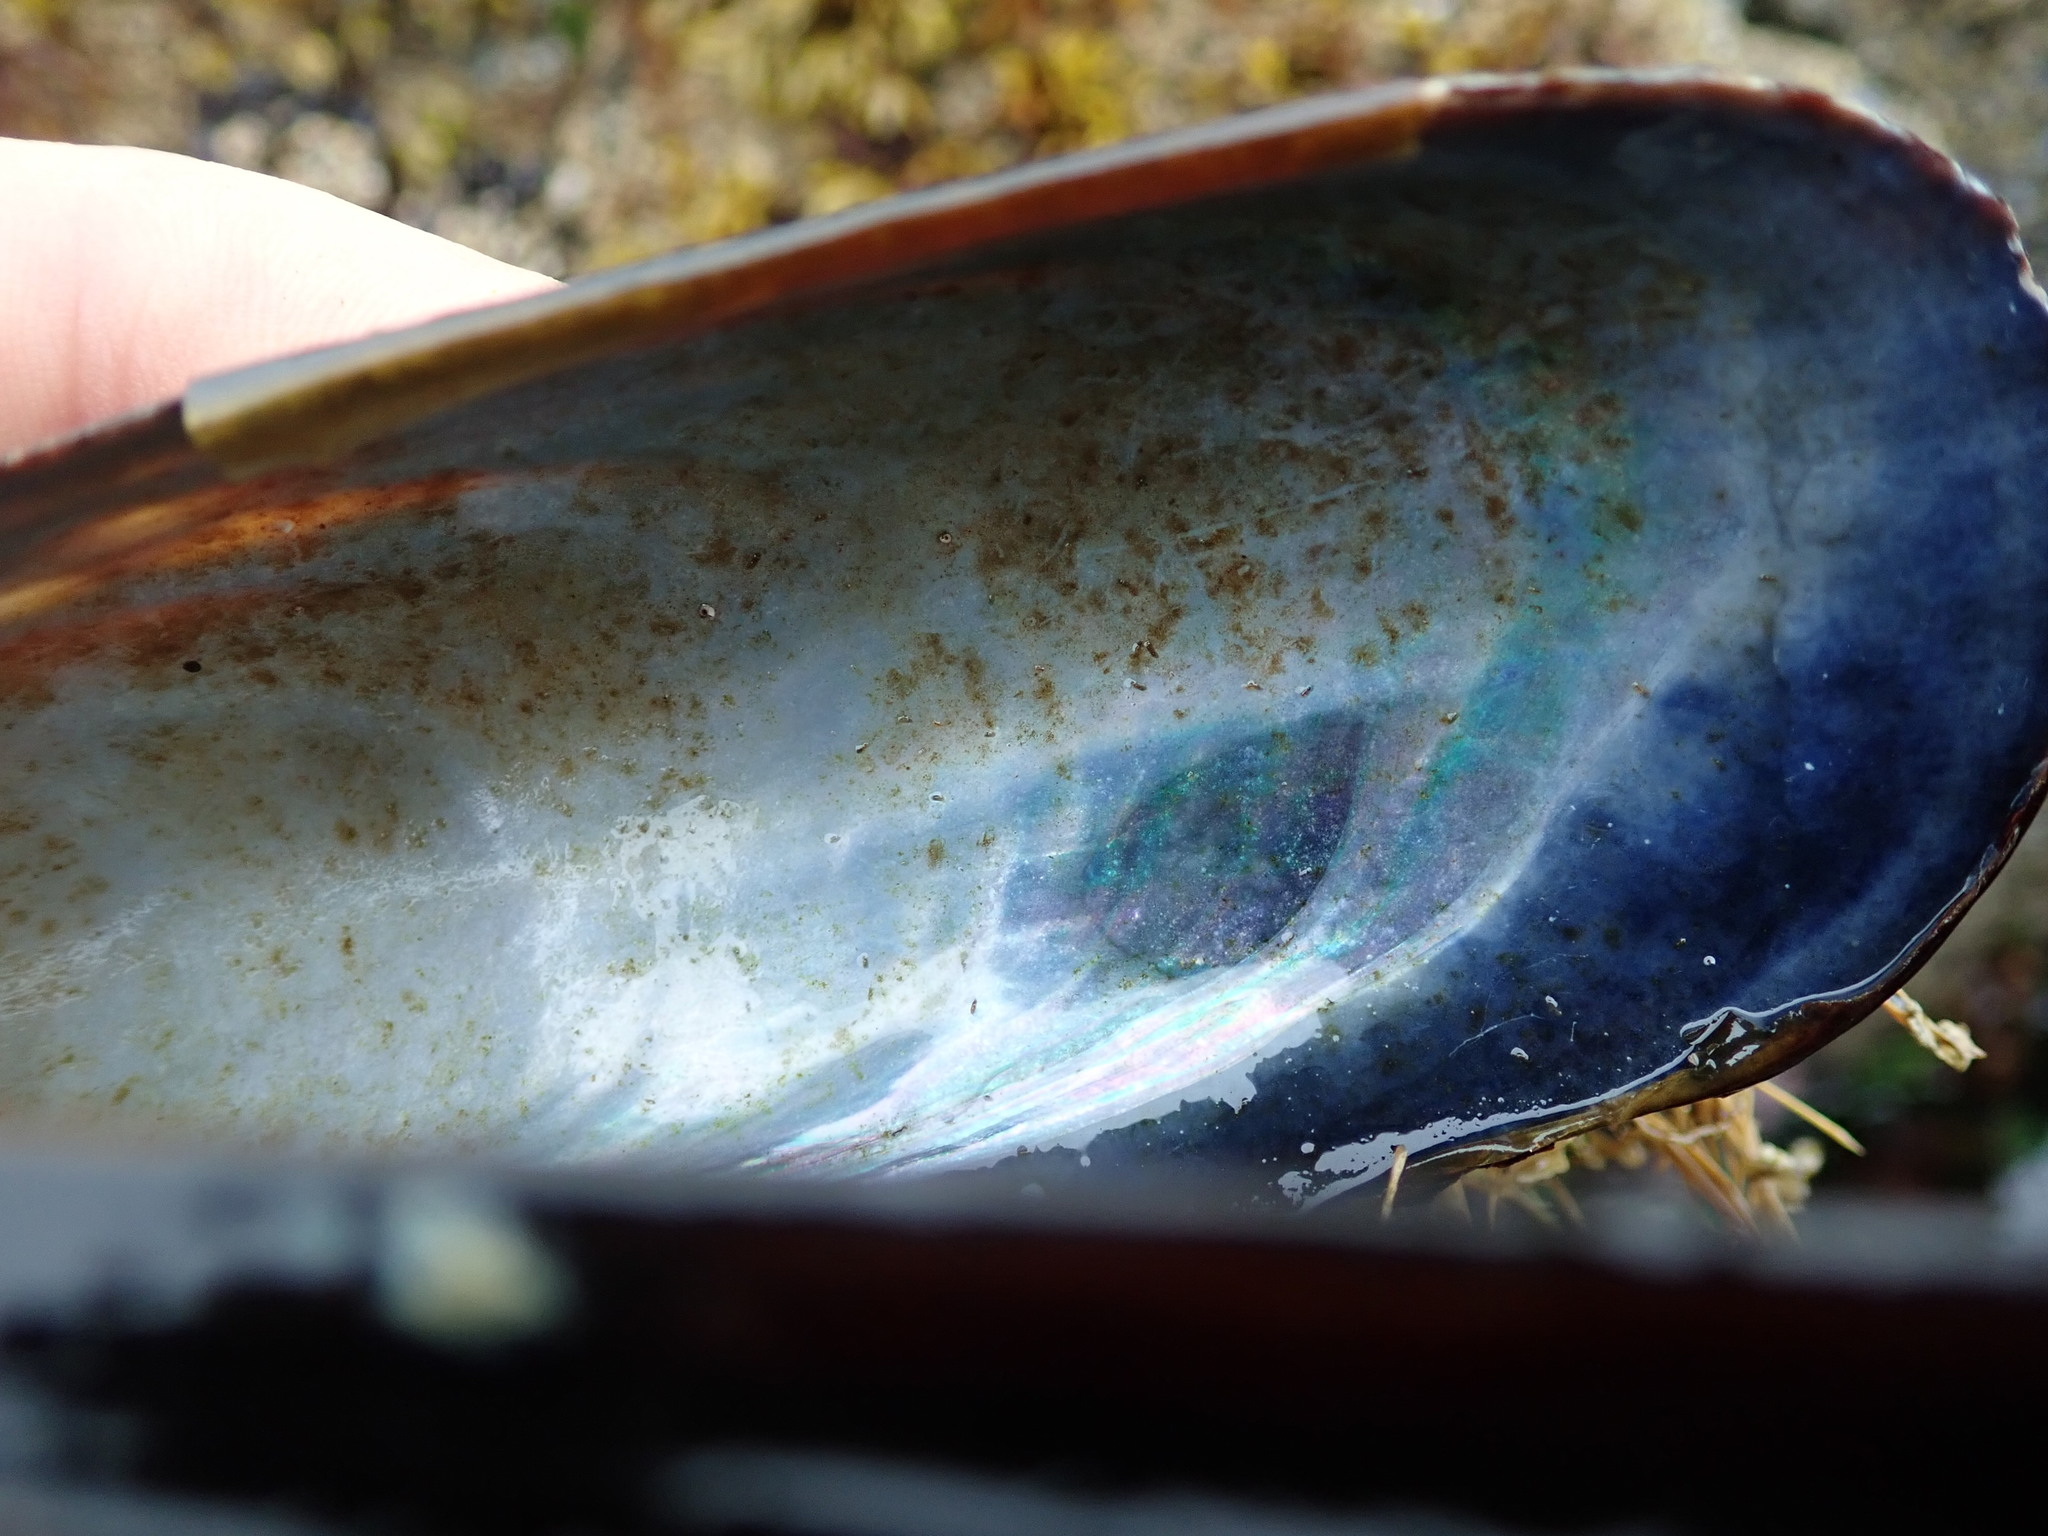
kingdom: Animalia
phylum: Mollusca
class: Bivalvia
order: Mytilida
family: Mytilidae
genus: Mytilus
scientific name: Mytilus californianus
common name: California mussel
